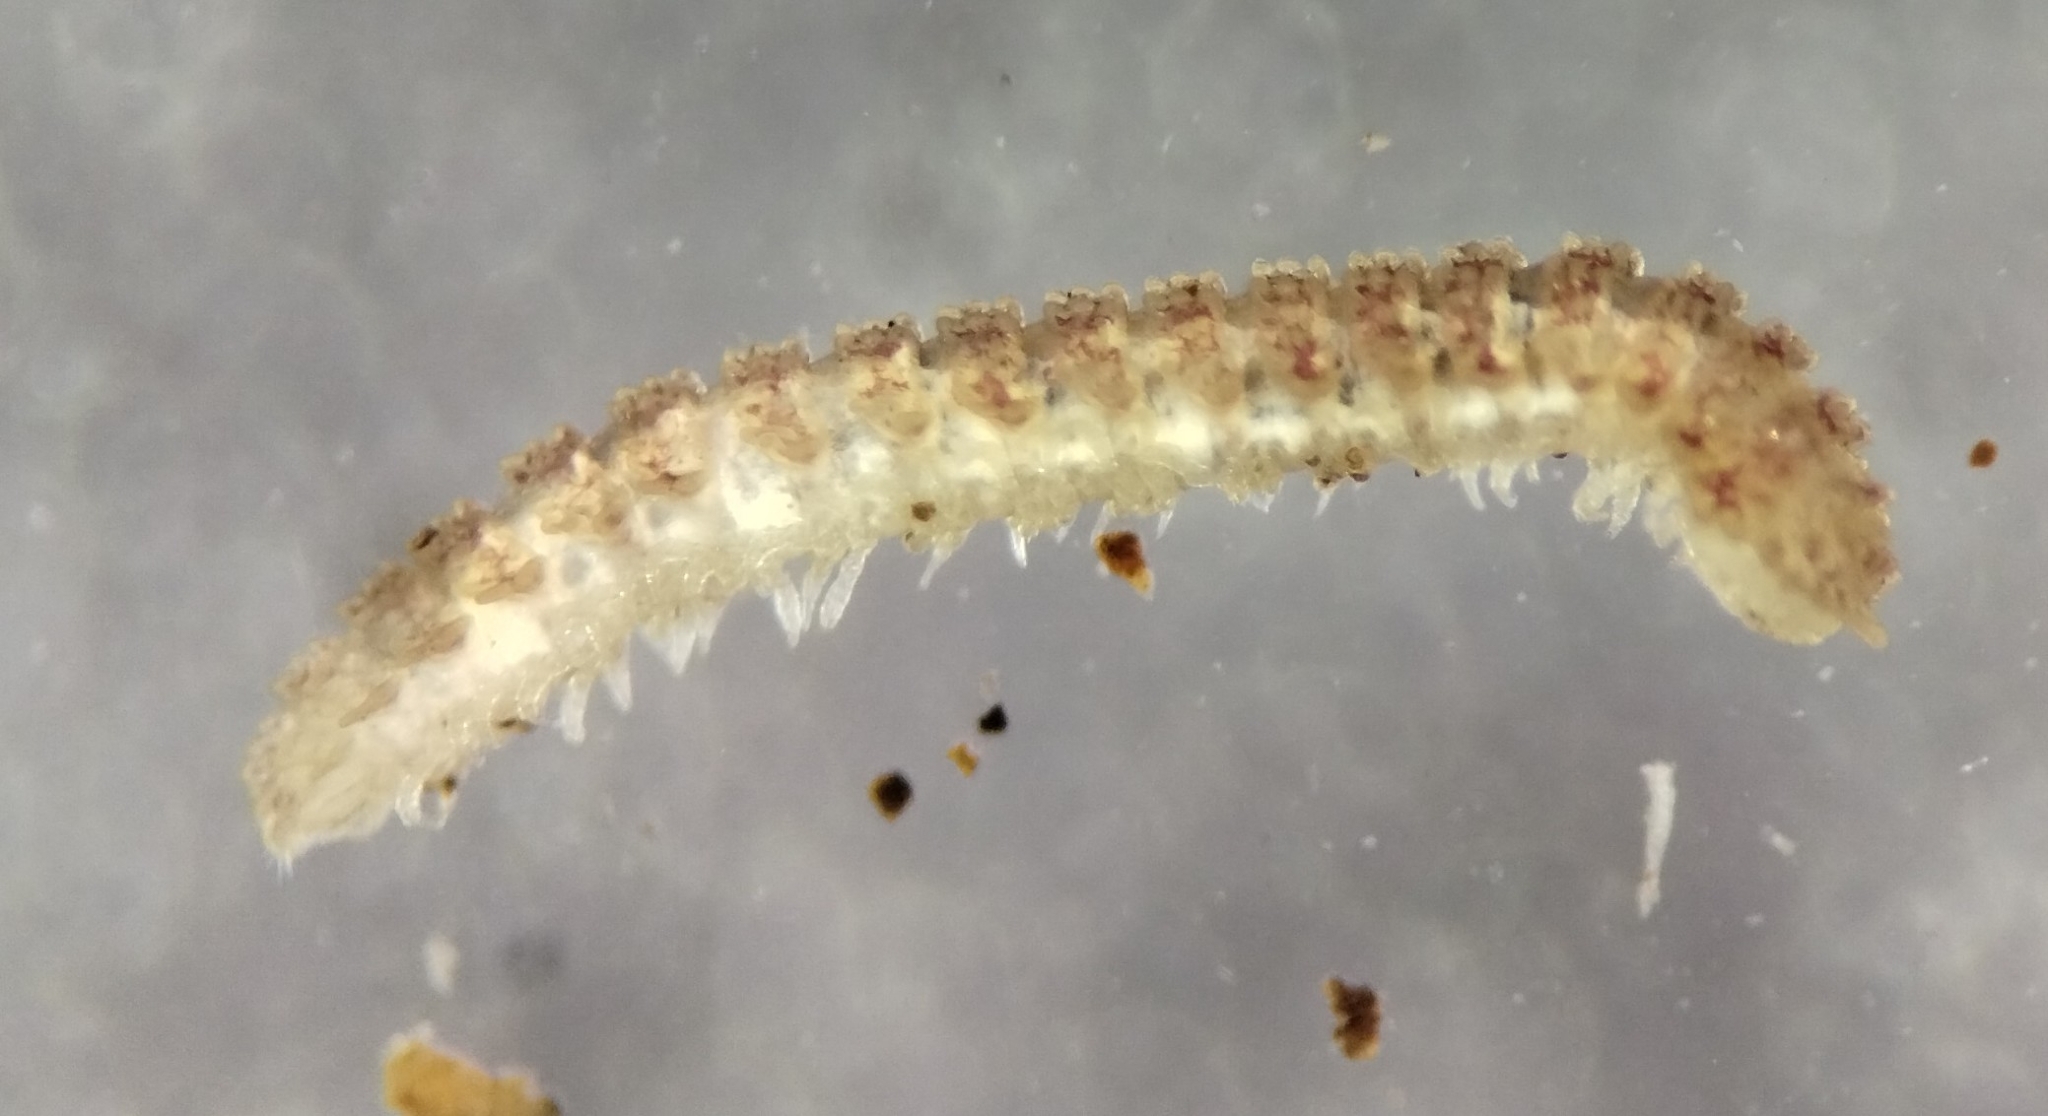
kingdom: Animalia
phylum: Arthropoda
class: Diplopoda
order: Polydesmida
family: Pyrgodesmidae
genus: Calyptodesmus
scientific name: Calyptodesmus sanctus
